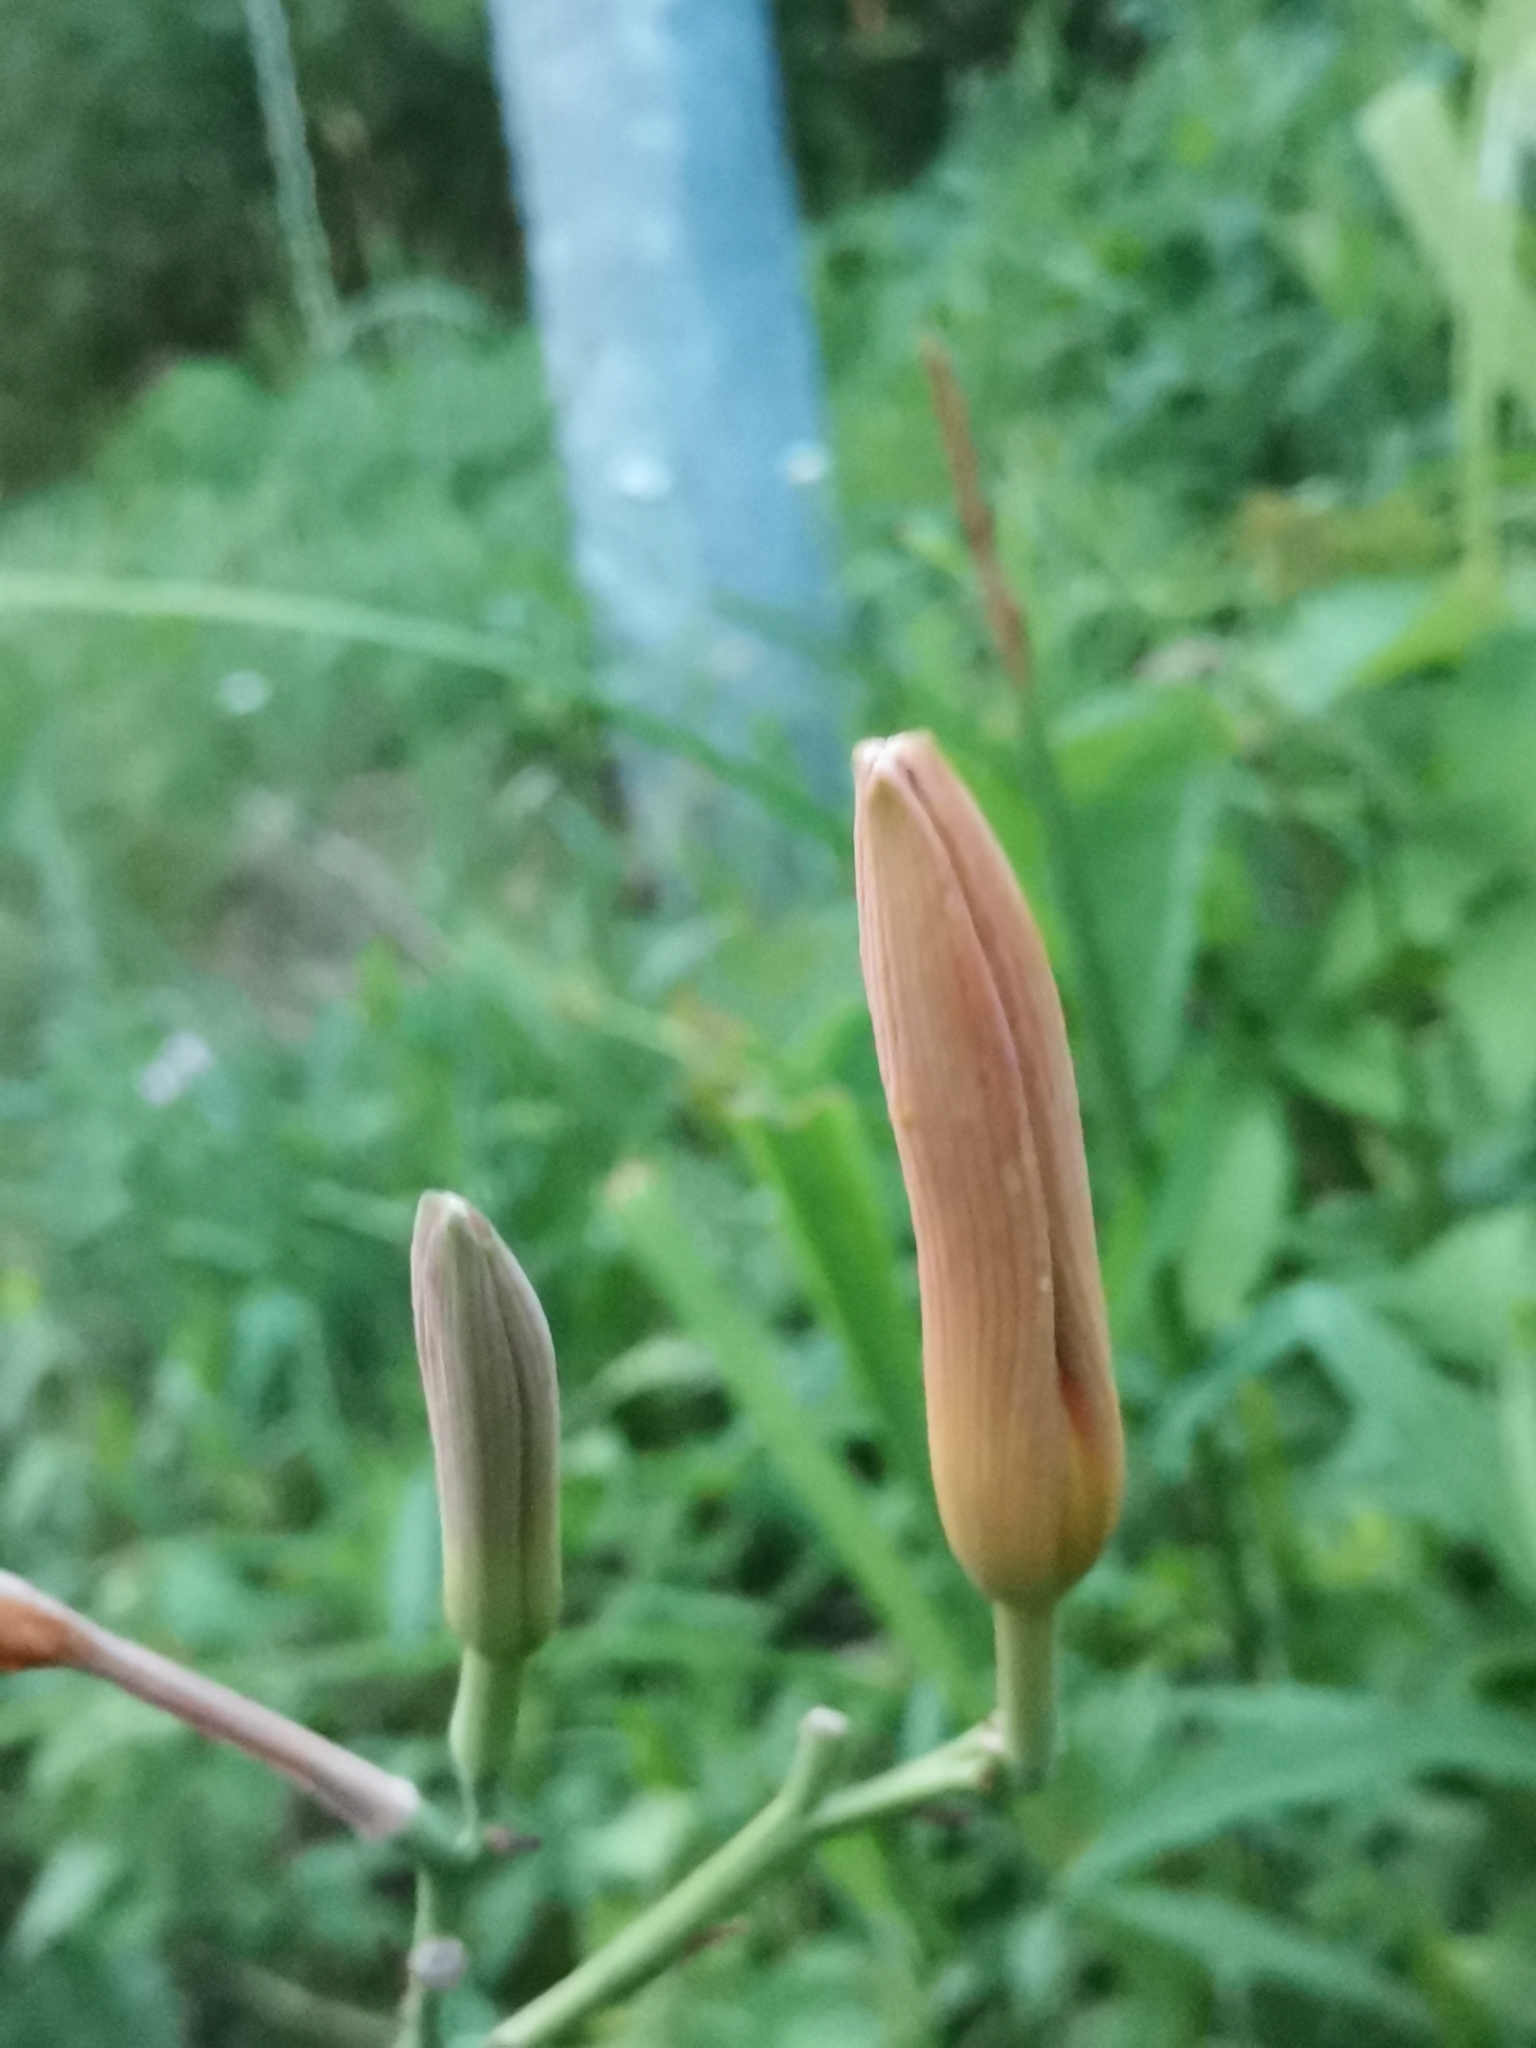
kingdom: Plantae
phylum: Tracheophyta
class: Liliopsida
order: Asparagales
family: Asphodelaceae
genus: Hemerocallis
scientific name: Hemerocallis fulva
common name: Orange day-lily
